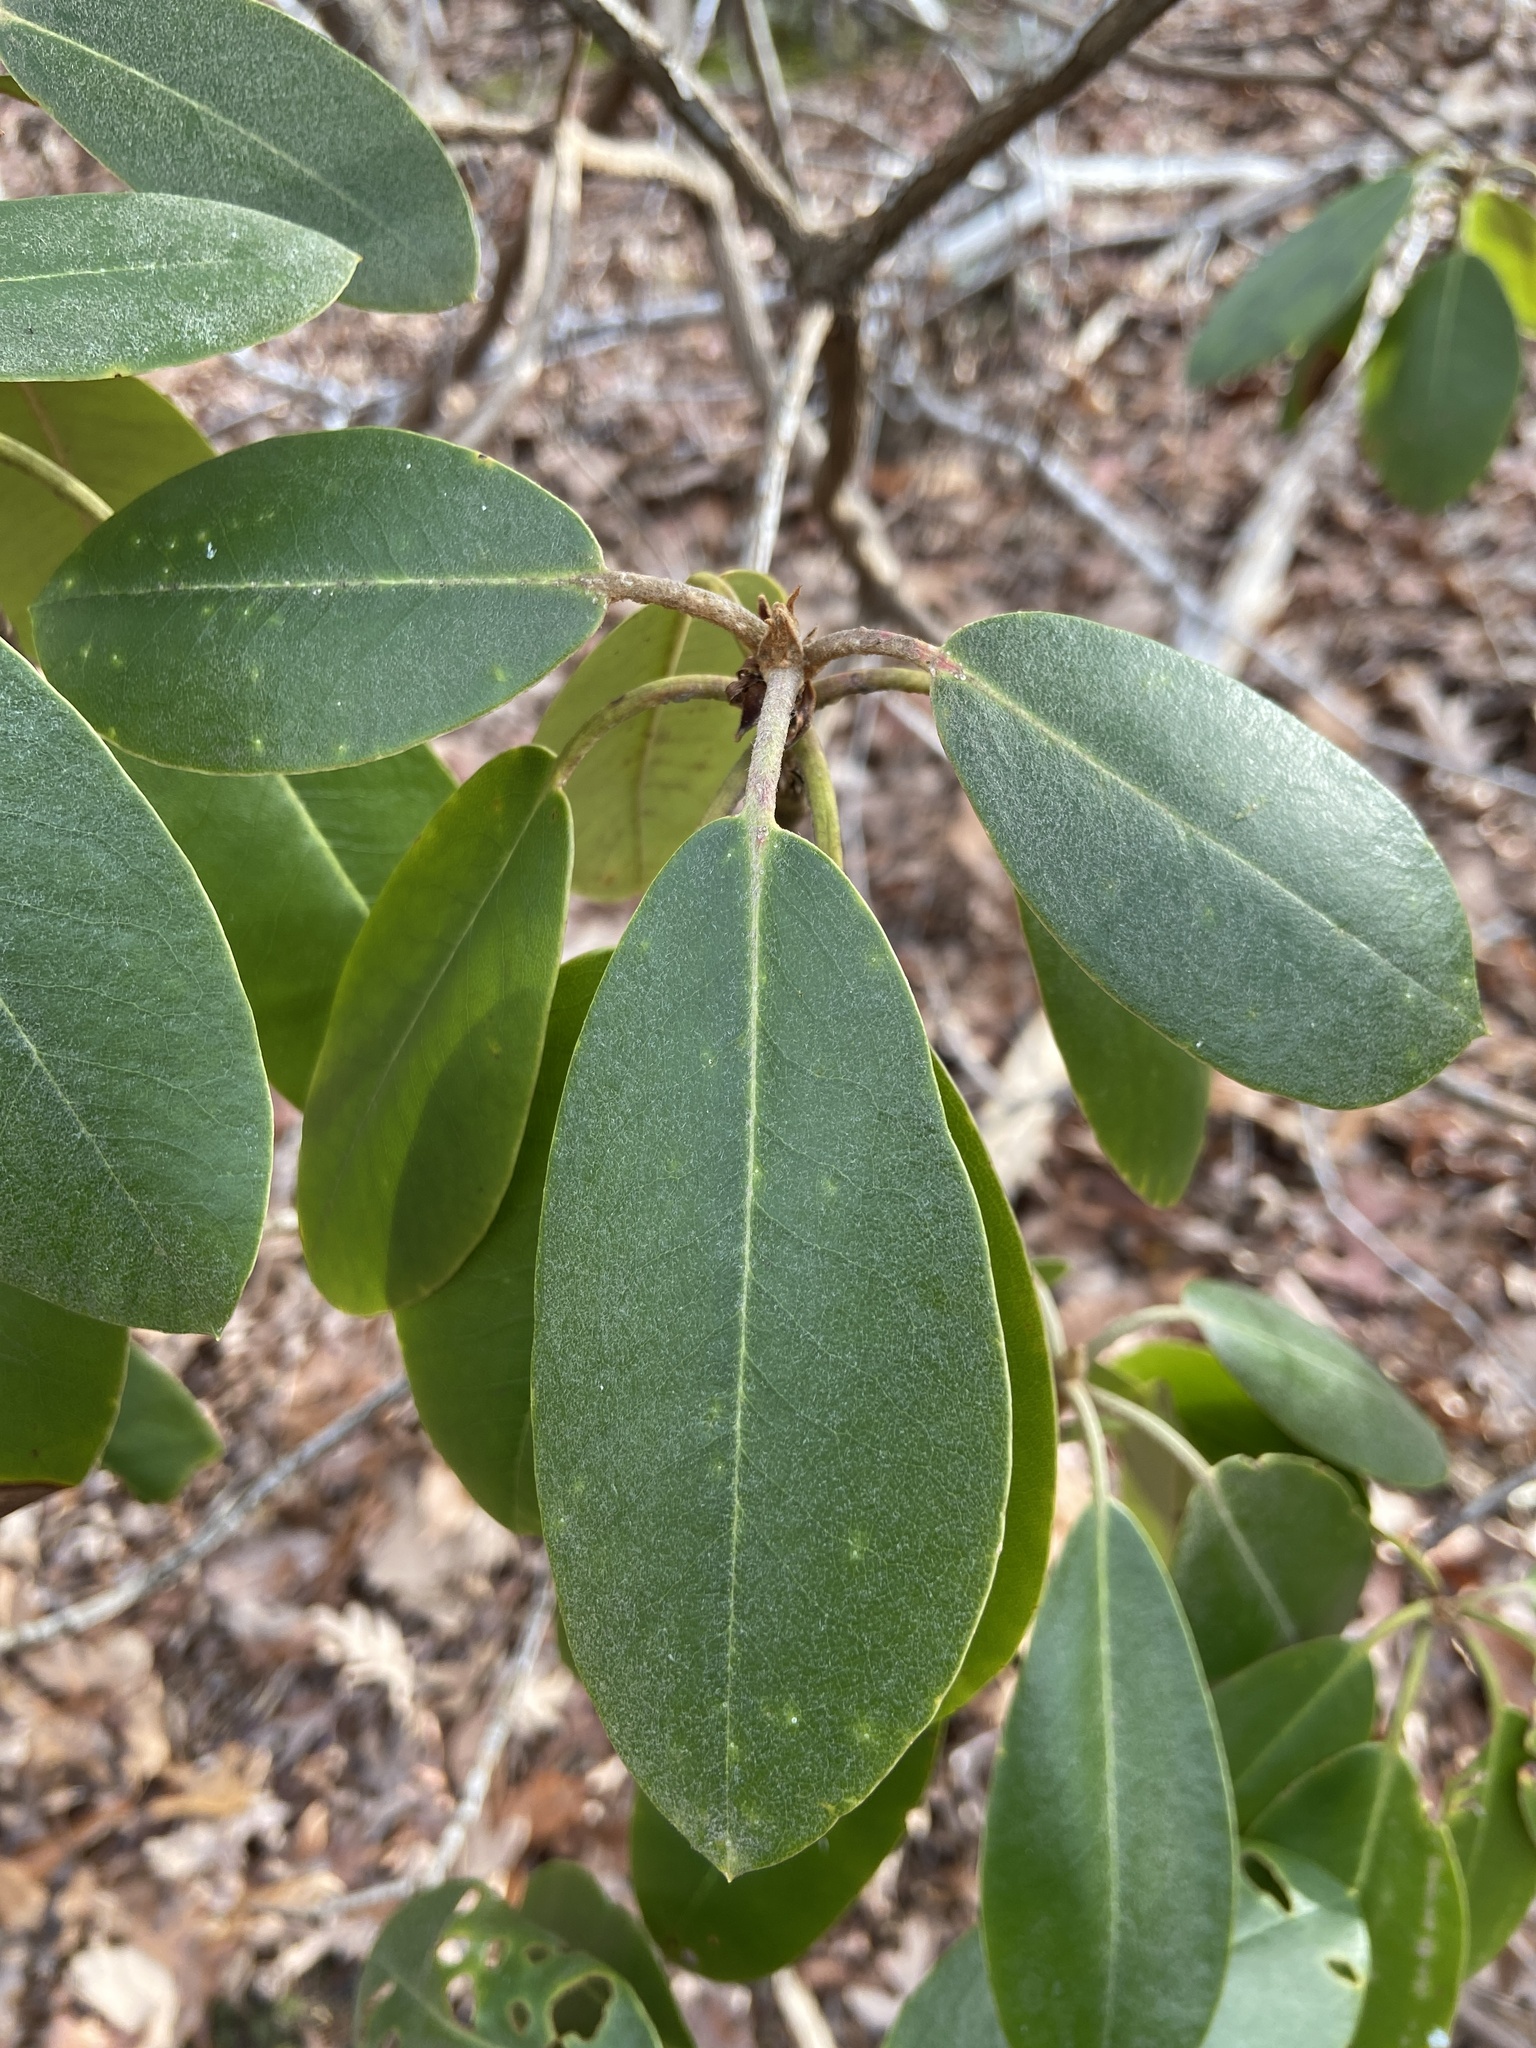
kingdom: Plantae
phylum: Tracheophyta
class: Magnoliopsida
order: Ericales
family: Ericaceae
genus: Rhododendron
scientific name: Rhododendron catawbiense
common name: Catawba rhododendron
